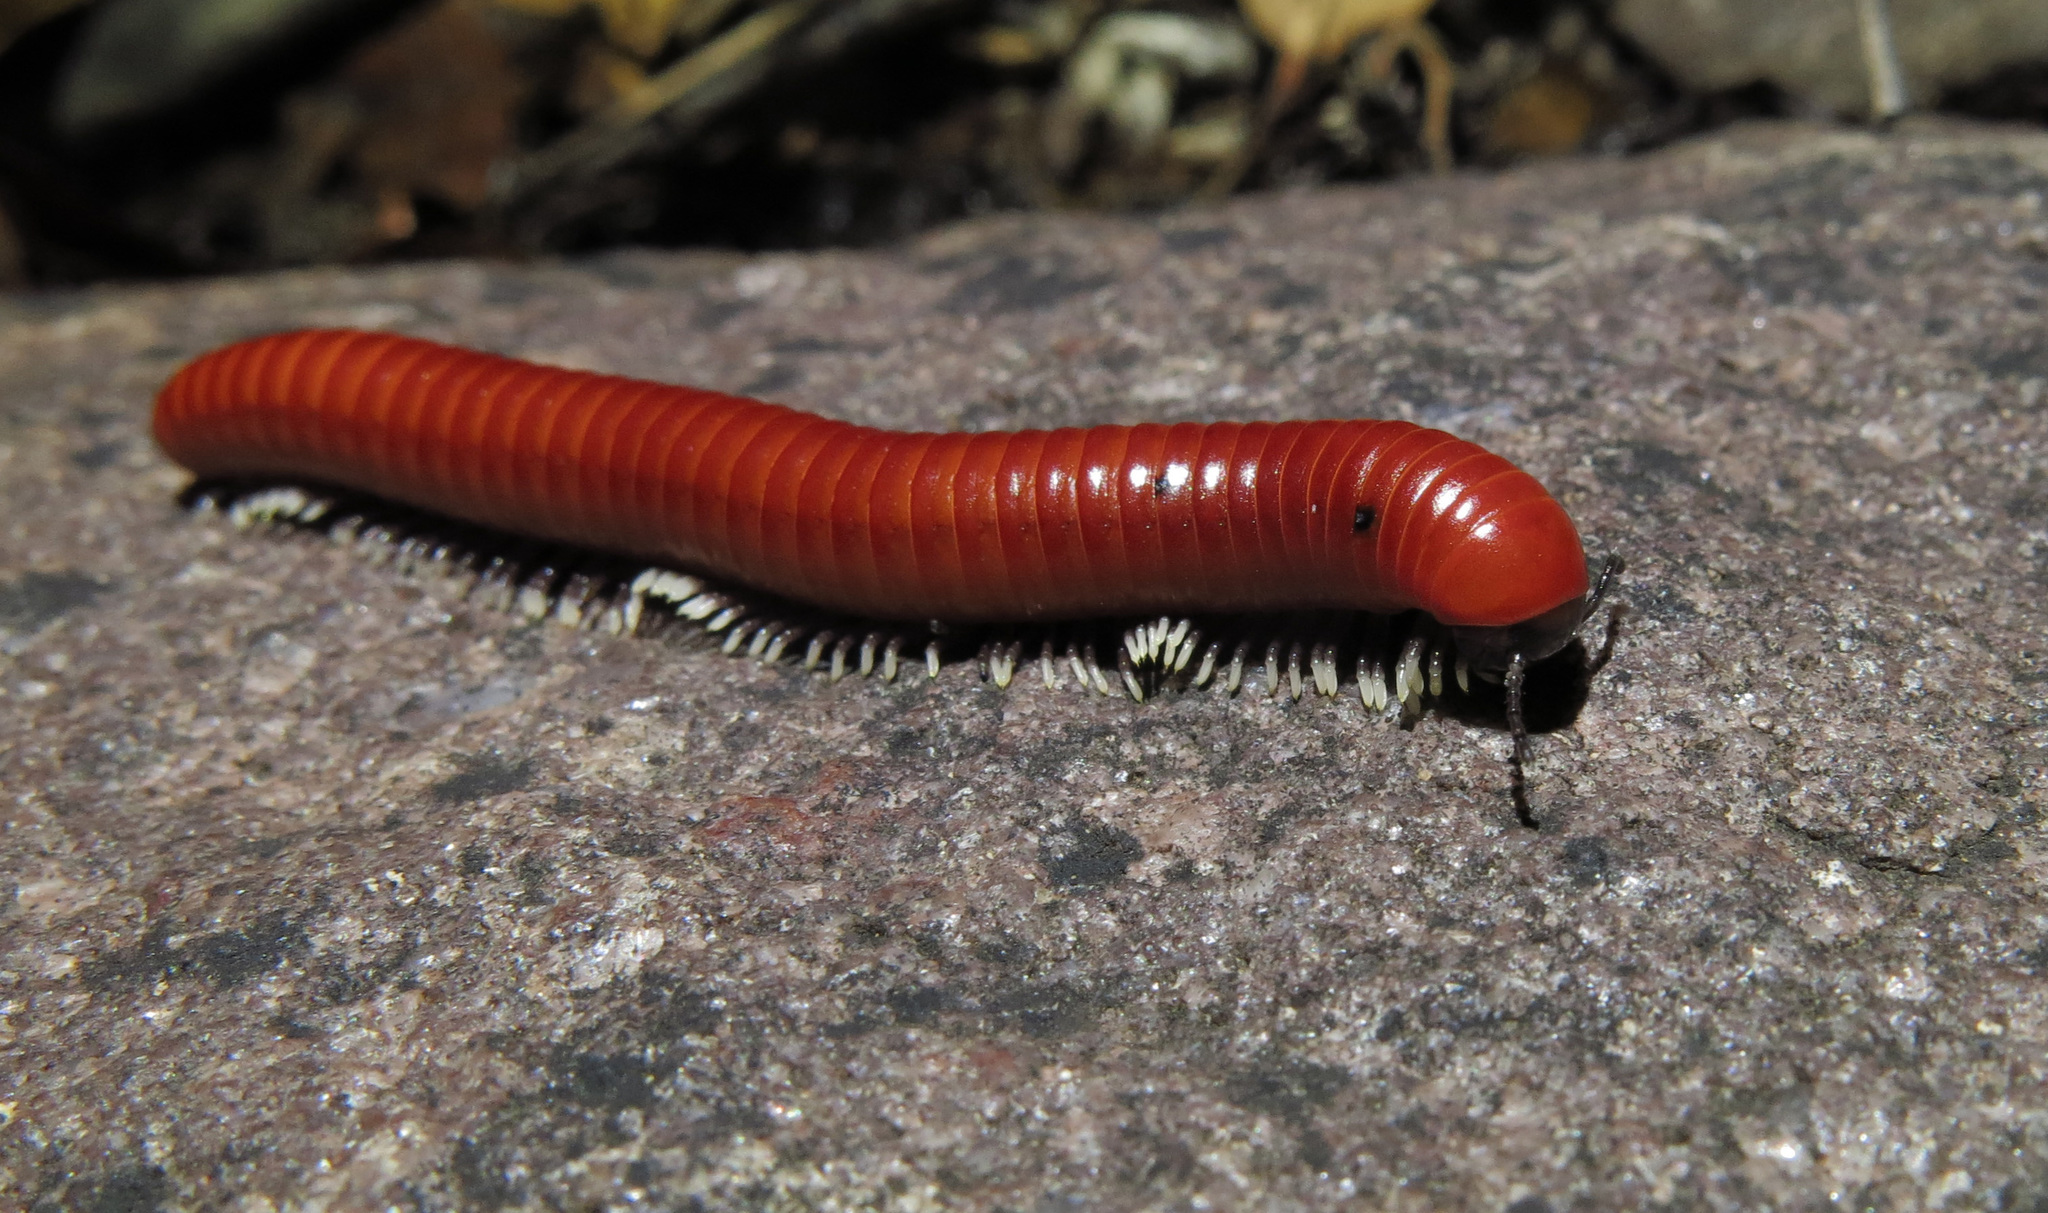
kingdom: Animalia
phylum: Arthropoda
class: Diplopoda
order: Spirobolida
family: Pachybolidae
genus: Centrobolus
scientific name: Centrobolus albitarsis
